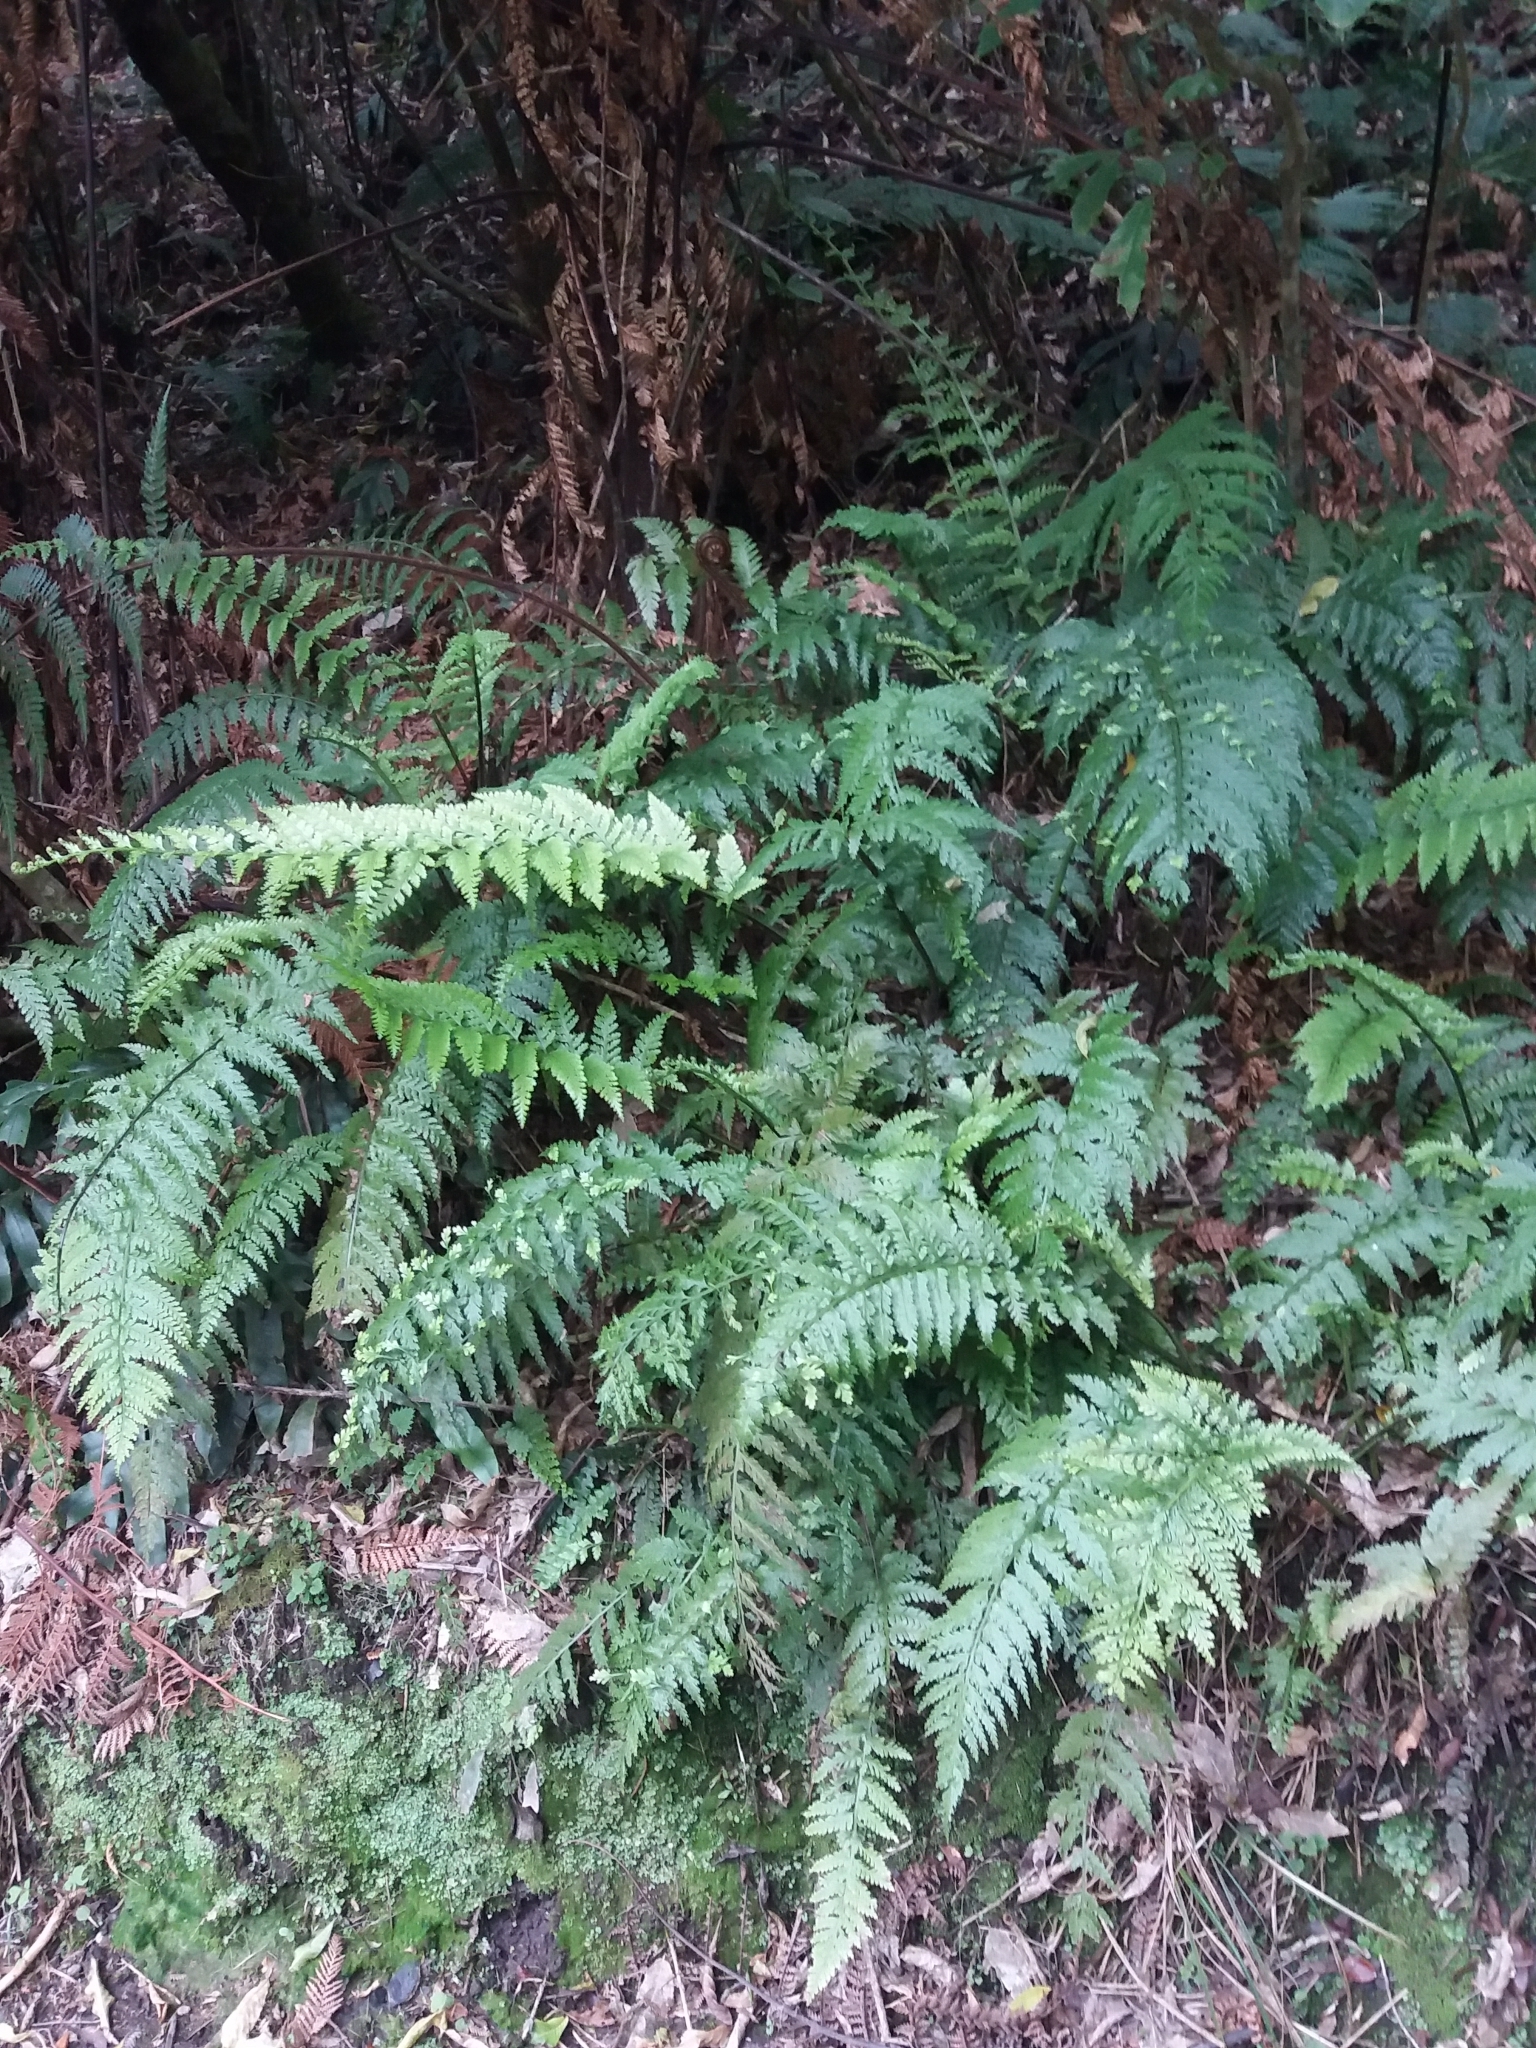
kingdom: Plantae
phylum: Tracheophyta
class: Polypodiopsida
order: Polypodiales
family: Aspleniaceae
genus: Asplenium
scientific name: Asplenium bulbiferum
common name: Mother fern
